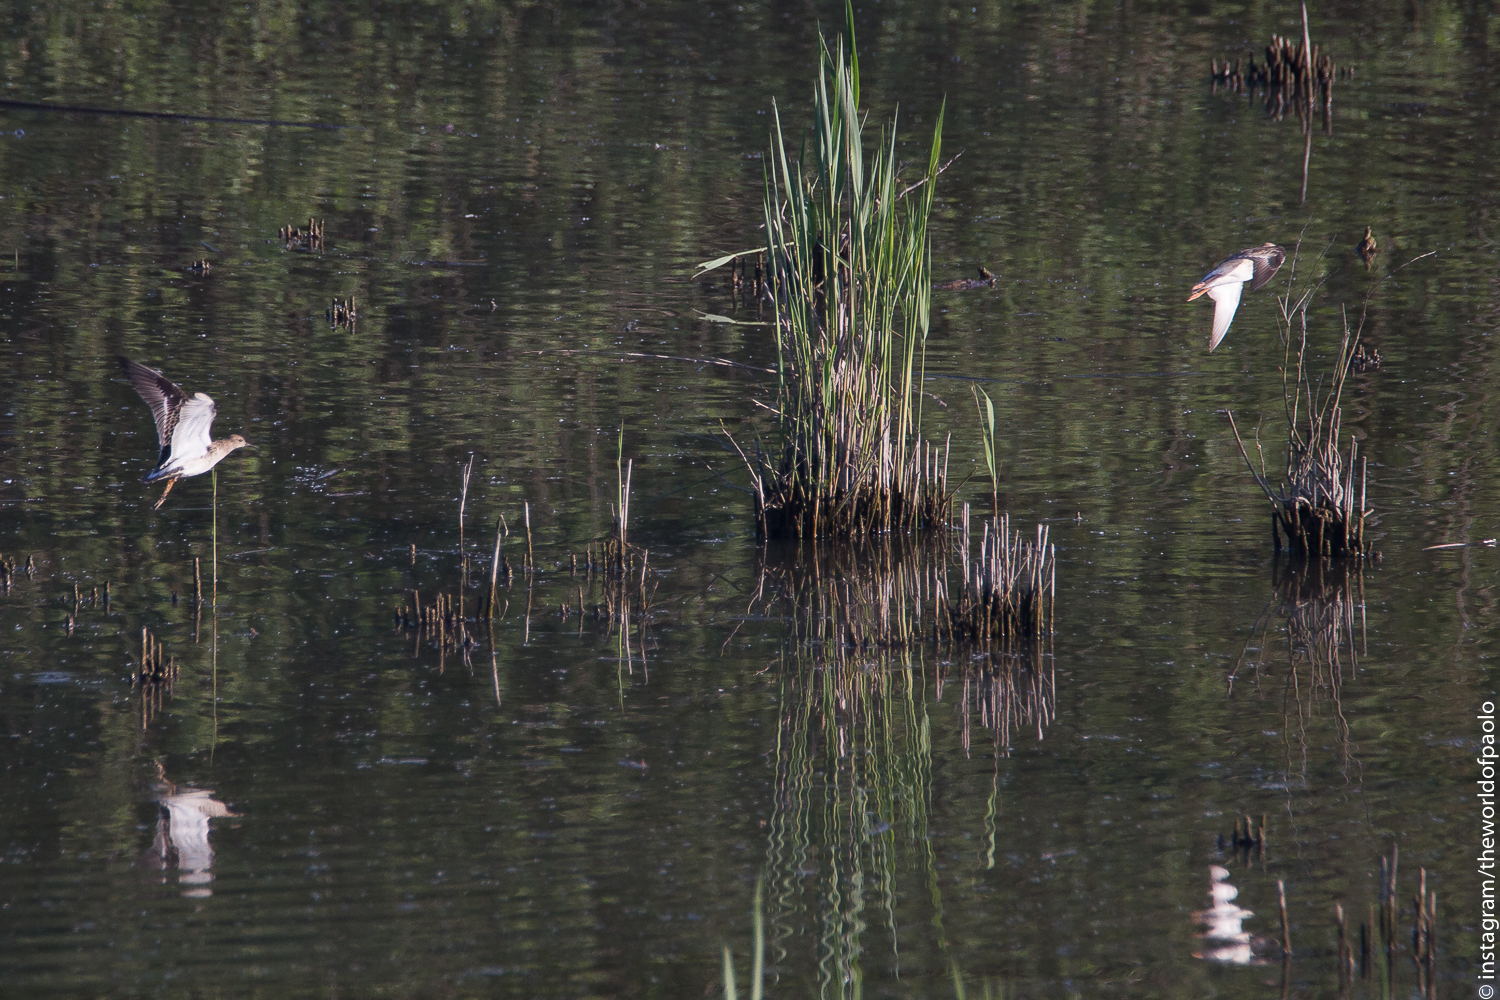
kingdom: Animalia
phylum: Chordata
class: Aves
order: Charadriiformes
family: Scolopacidae
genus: Calidris
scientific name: Calidris pugnax
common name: Ruff
